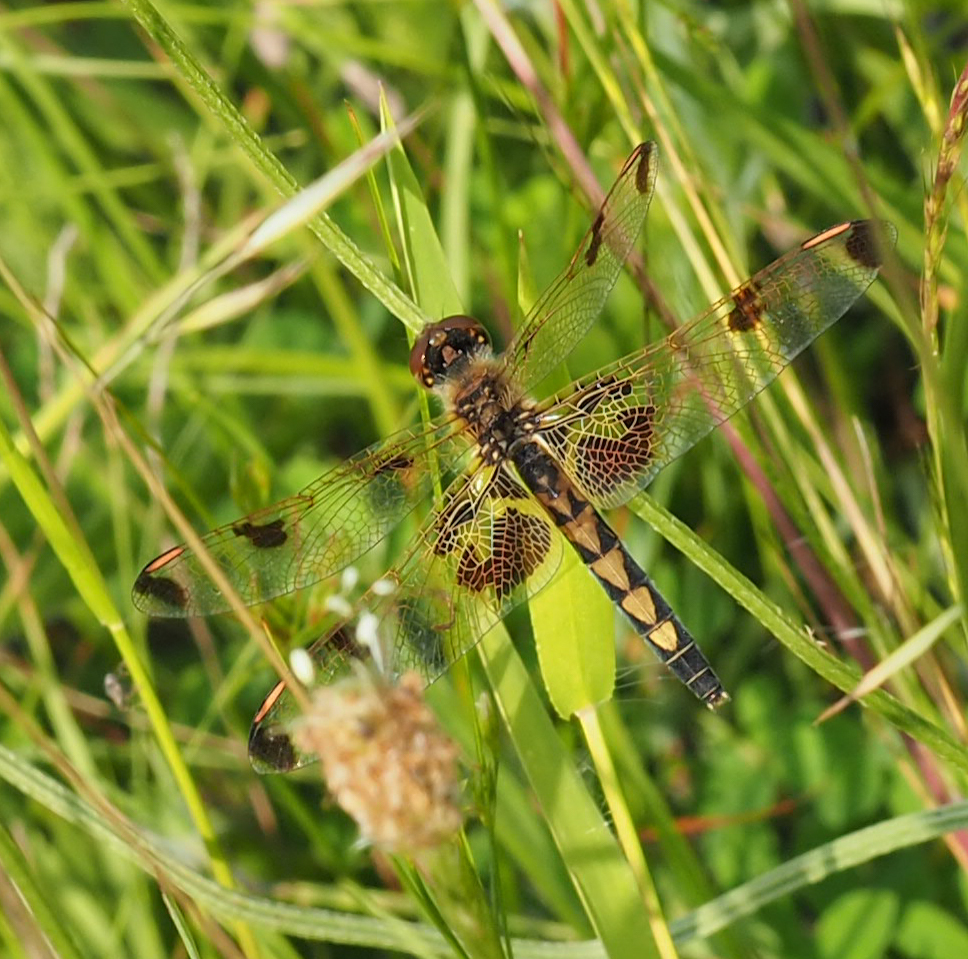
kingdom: Animalia
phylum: Arthropoda
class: Insecta
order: Odonata
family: Libellulidae
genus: Celithemis
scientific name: Celithemis elisa
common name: Calico pennant
